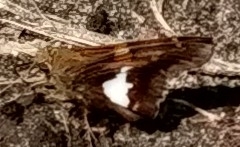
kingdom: Animalia
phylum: Arthropoda
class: Insecta
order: Lepidoptera
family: Hesperiidae
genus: Epargyreus
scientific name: Epargyreus clarus
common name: Silver-spotted skipper
